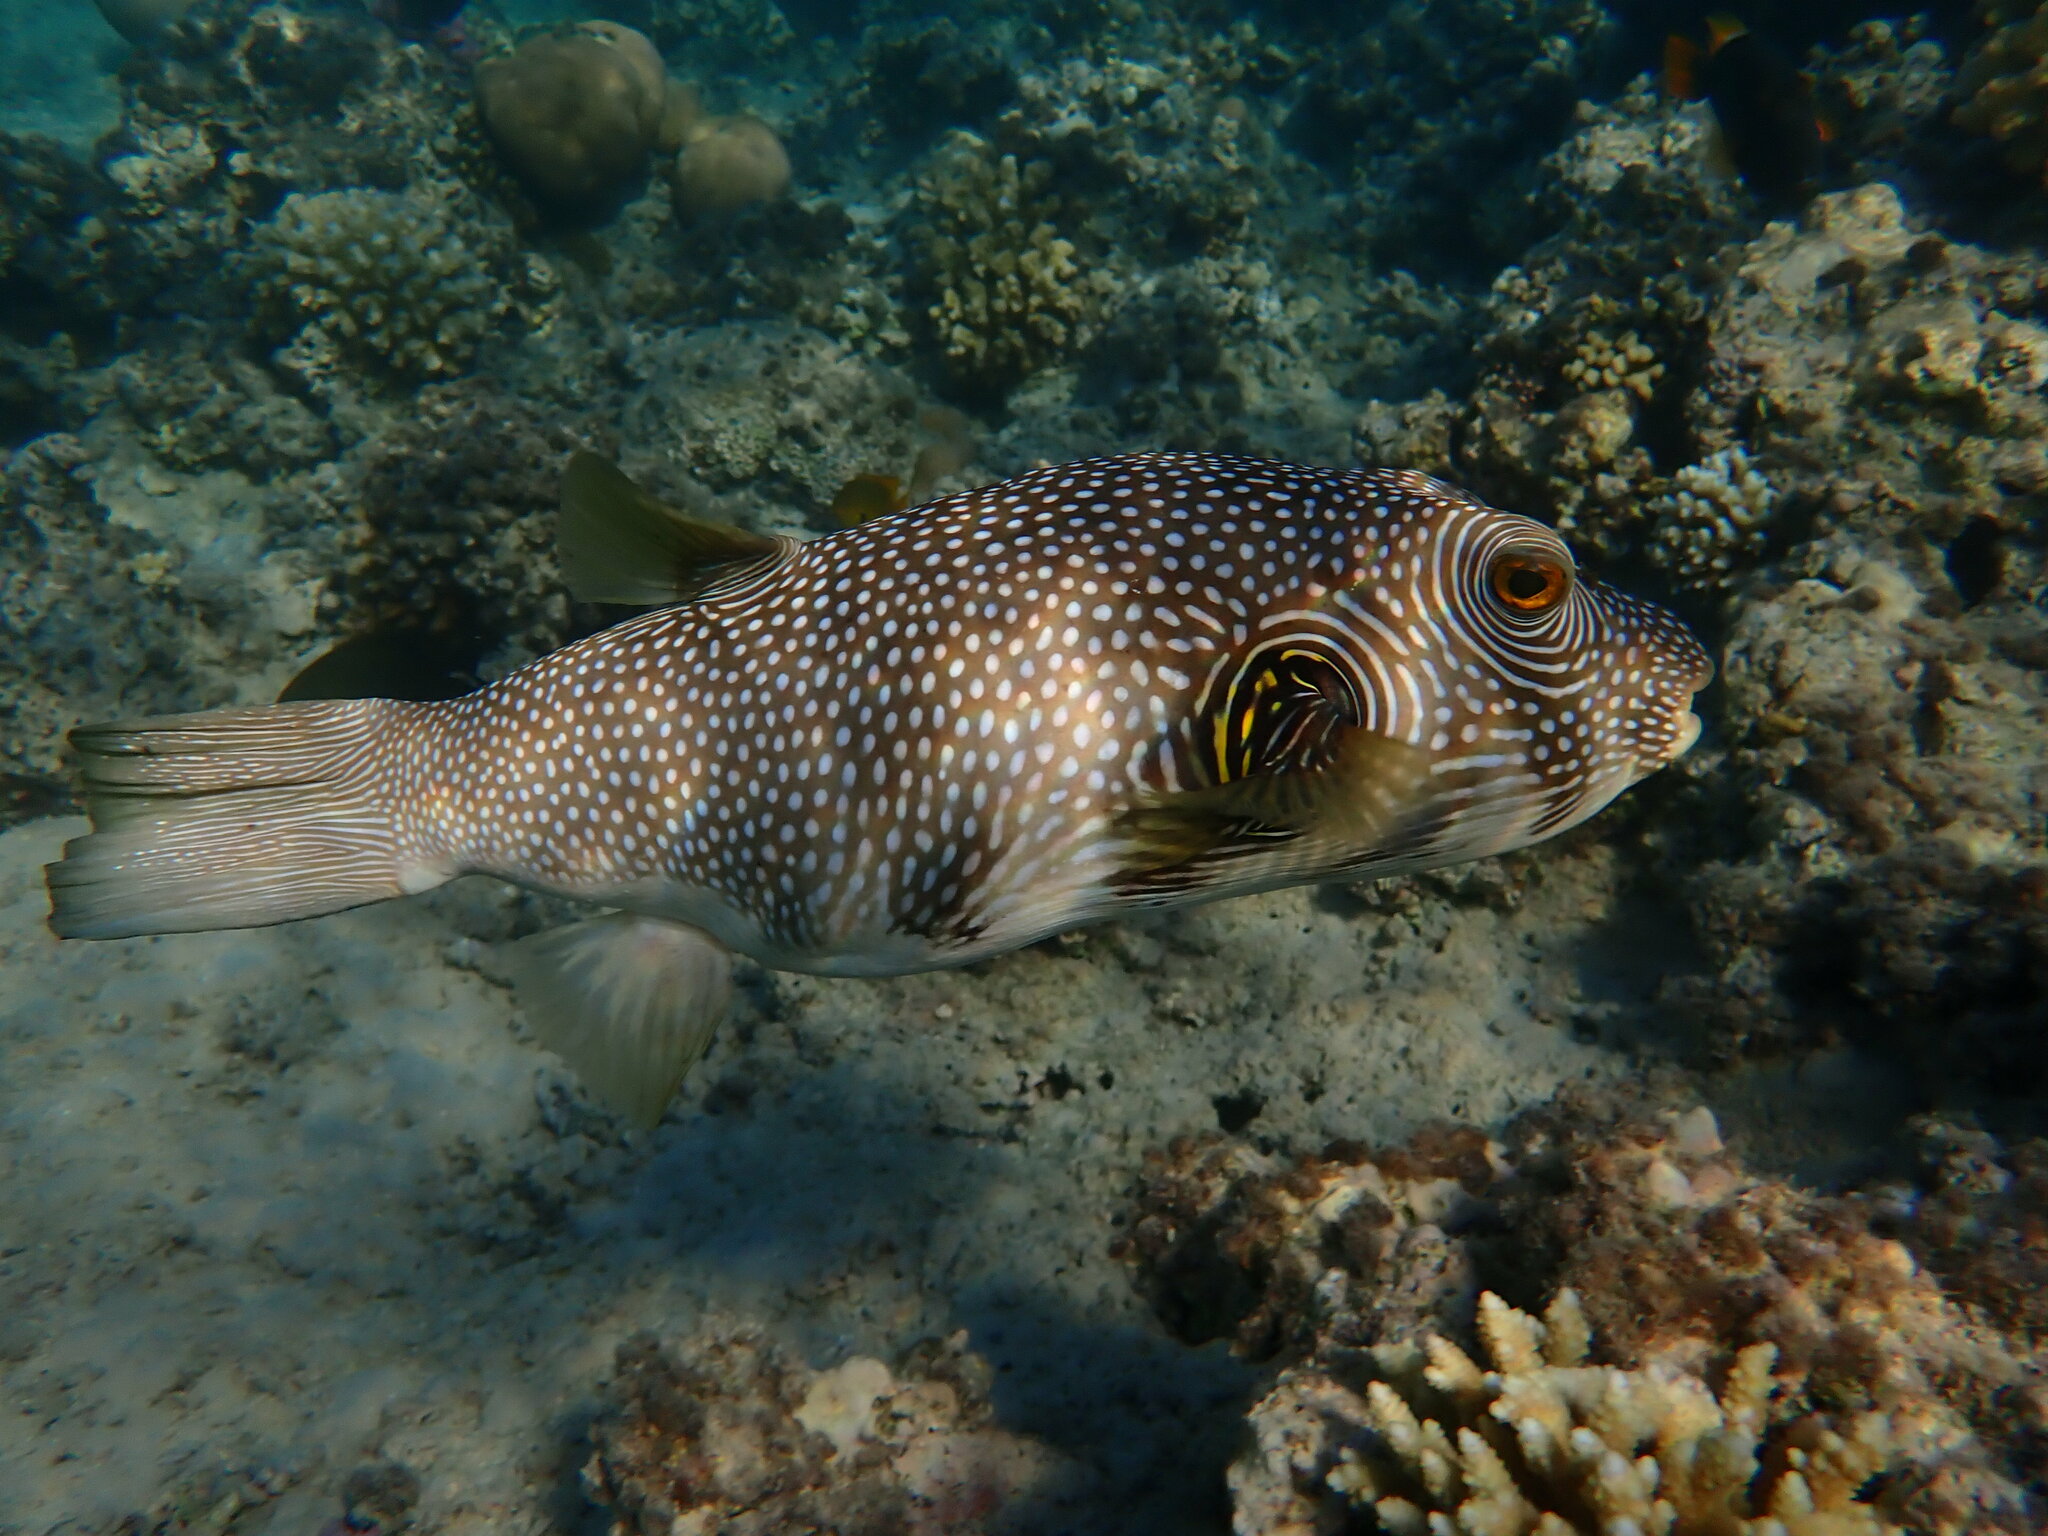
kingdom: Animalia
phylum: Chordata
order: Tetraodontiformes
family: Tetraodontidae
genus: Arothron
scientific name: Arothron hispidus
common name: Stripebelly puffer
